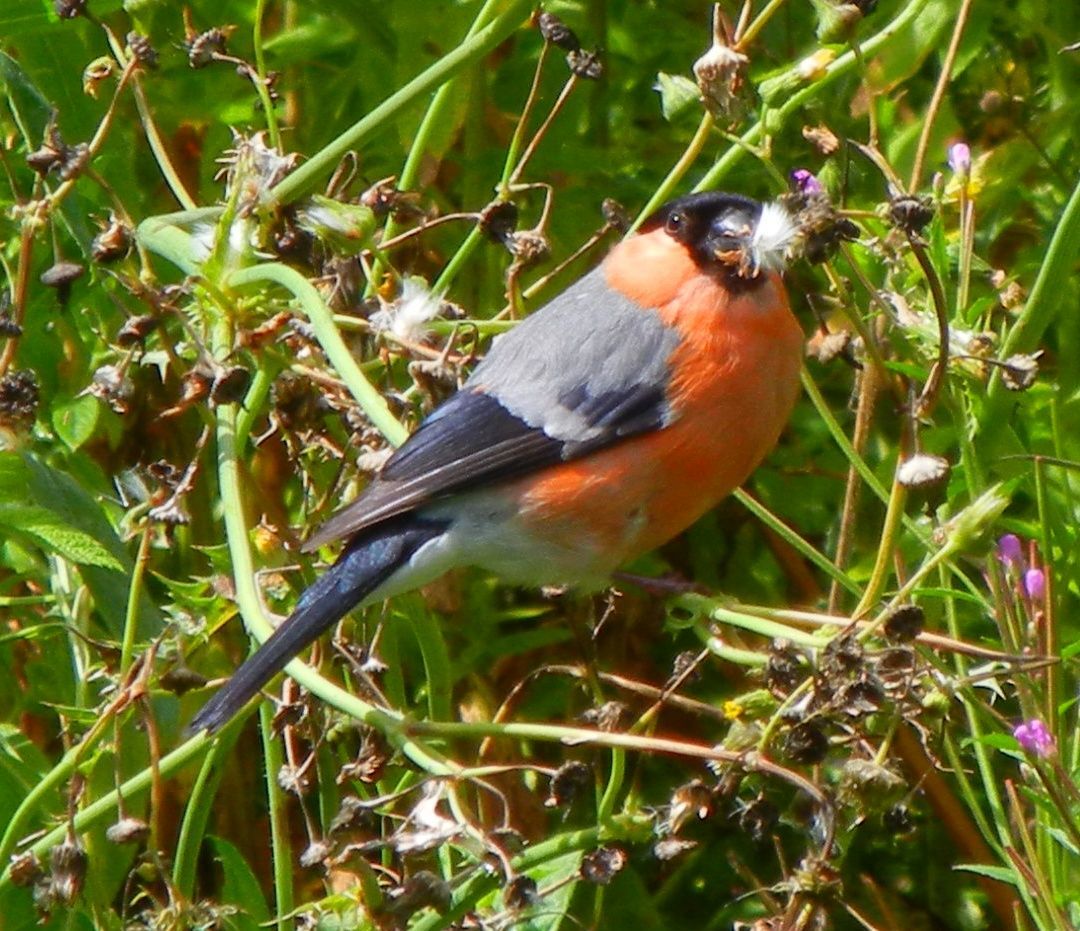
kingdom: Animalia
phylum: Chordata
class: Aves
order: Passeriformes
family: Fringillidae
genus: Pyrrhula
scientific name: Pyrrhula pyrrhula
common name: Eurasian bullfinch
